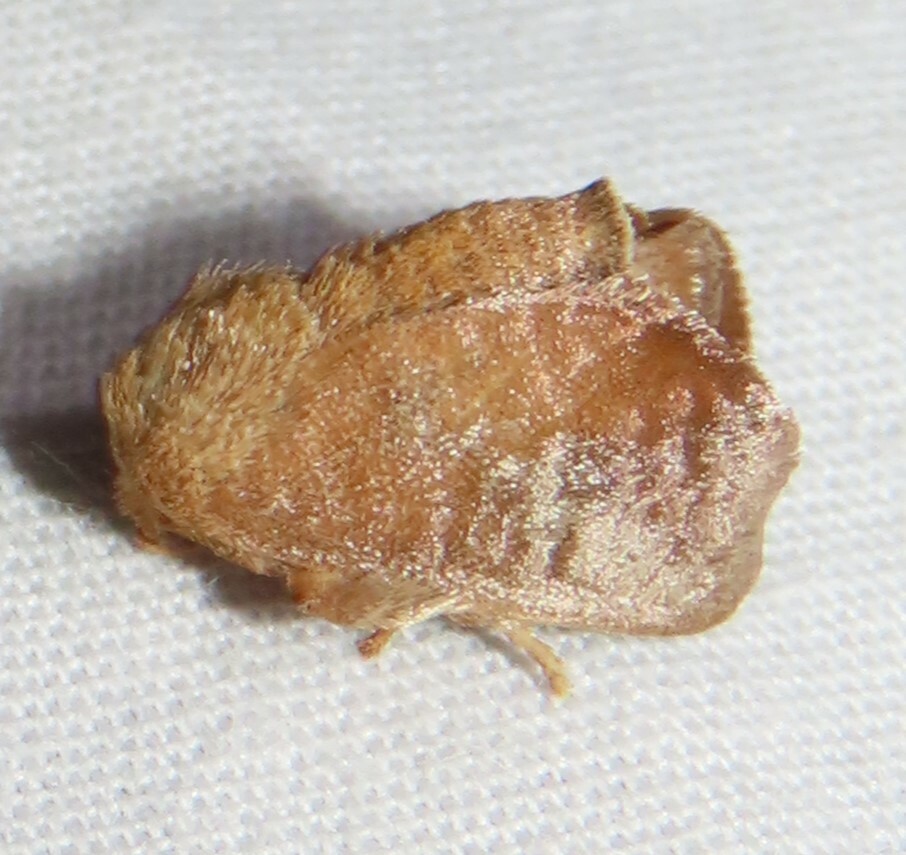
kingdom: Animalia
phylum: Arthropoda
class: Insecta
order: Lepidoptera
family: Limacodidae
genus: Isa
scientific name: Isa textula
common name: Crowned slug moth
